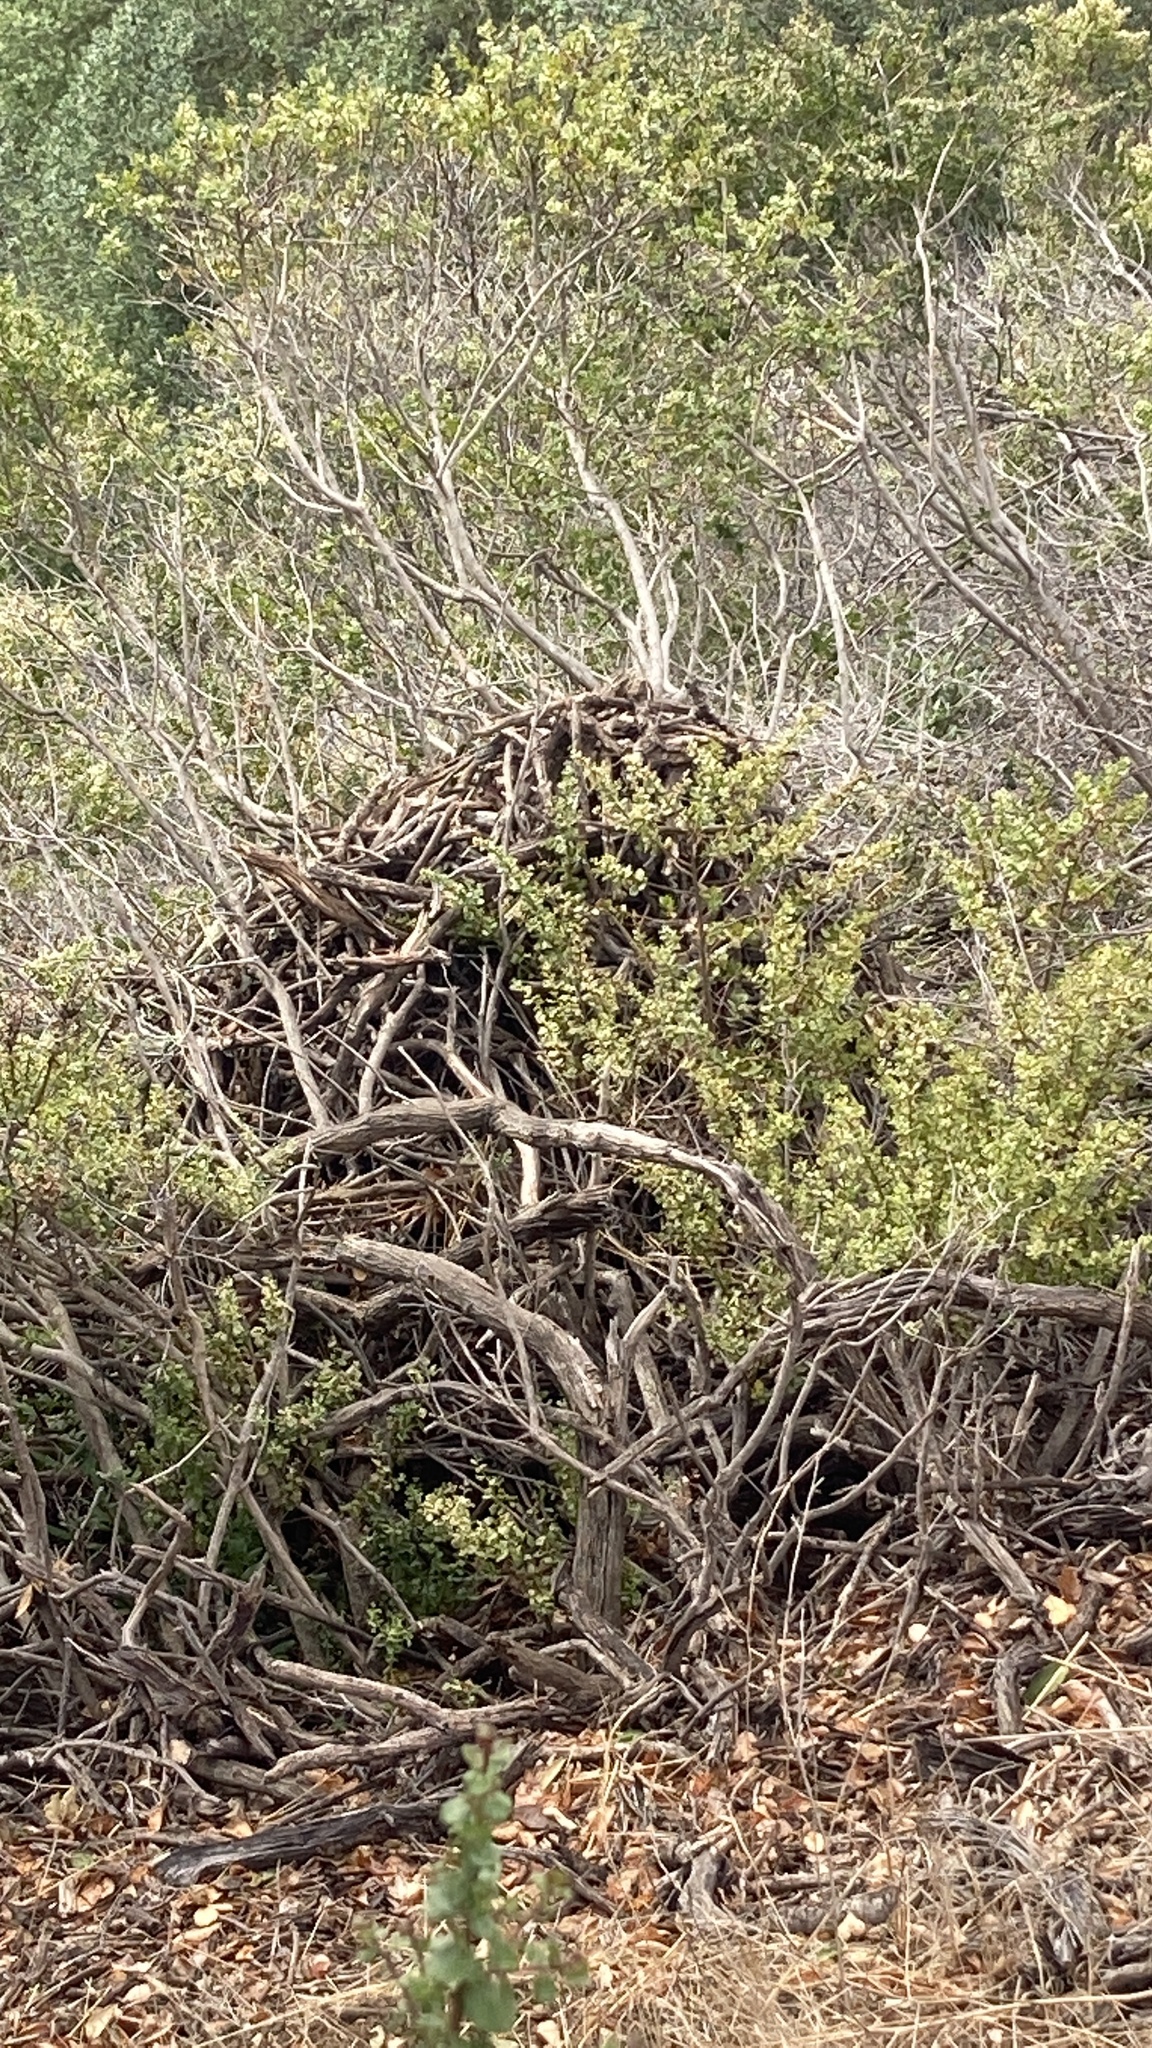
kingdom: Animalia
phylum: Chordata
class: Mammalia
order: Rodentia
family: Cricetidae
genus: Neotoma
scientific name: Neotoma fuscipes
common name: Dusky-footed woodrat
